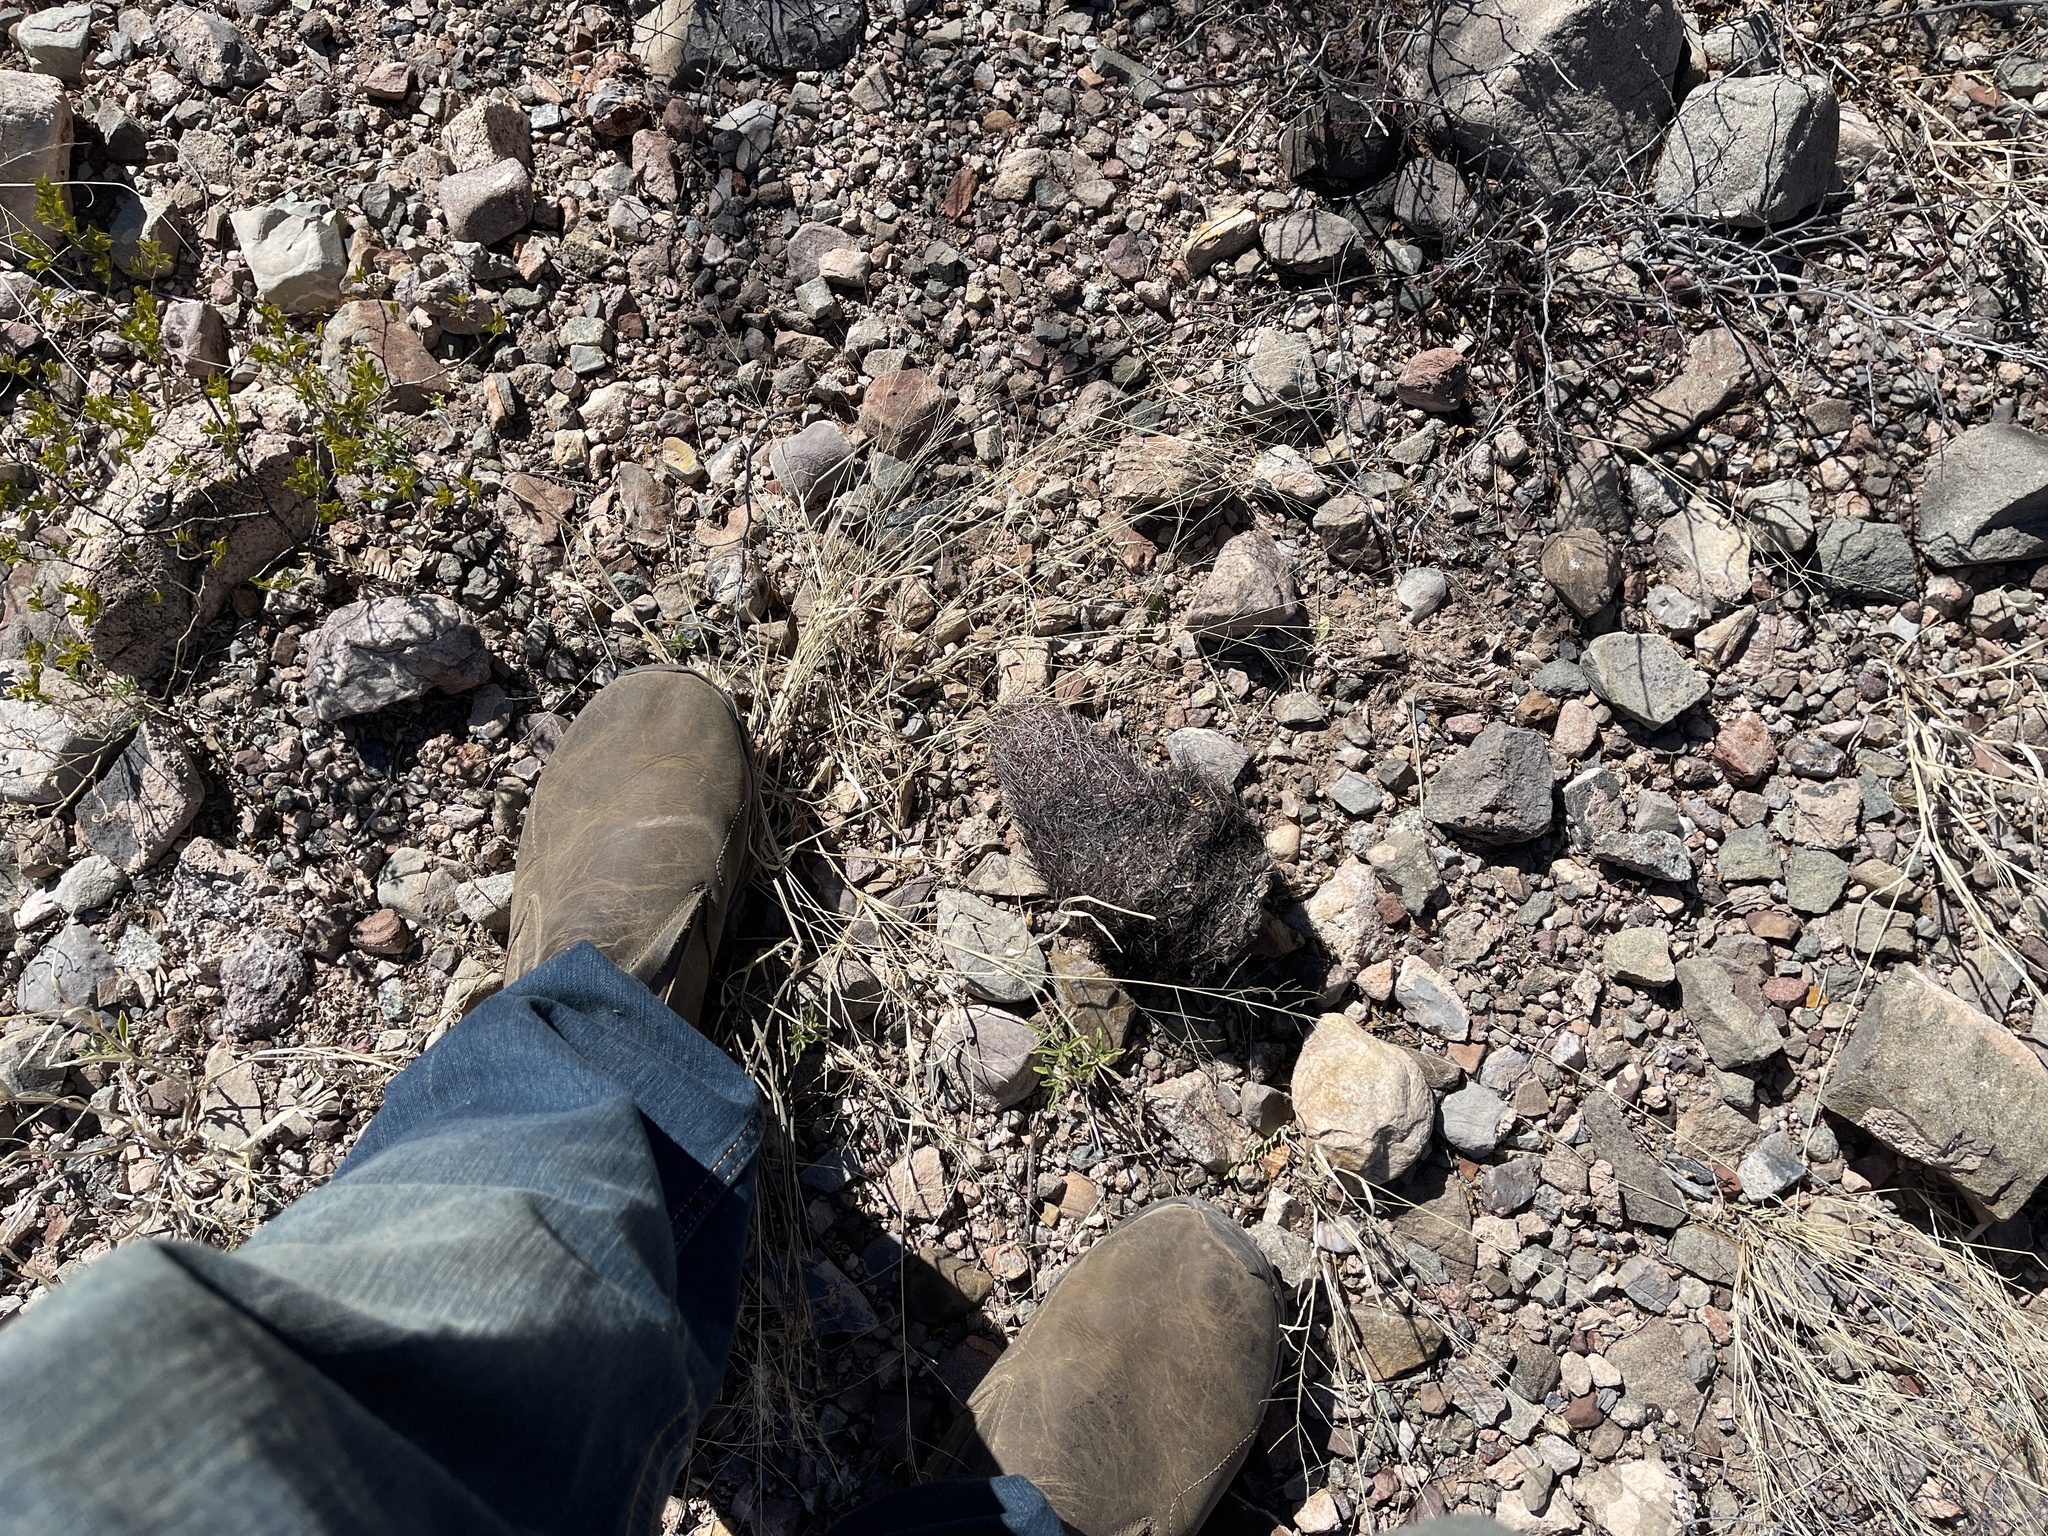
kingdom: Plantae
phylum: Tracheophyta
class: Magnoliopsida
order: Caryophyllales
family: Cactaceae
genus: Sclerocactus
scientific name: Sclerocactus johnsonii
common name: Eight-spine fishhook cactus
